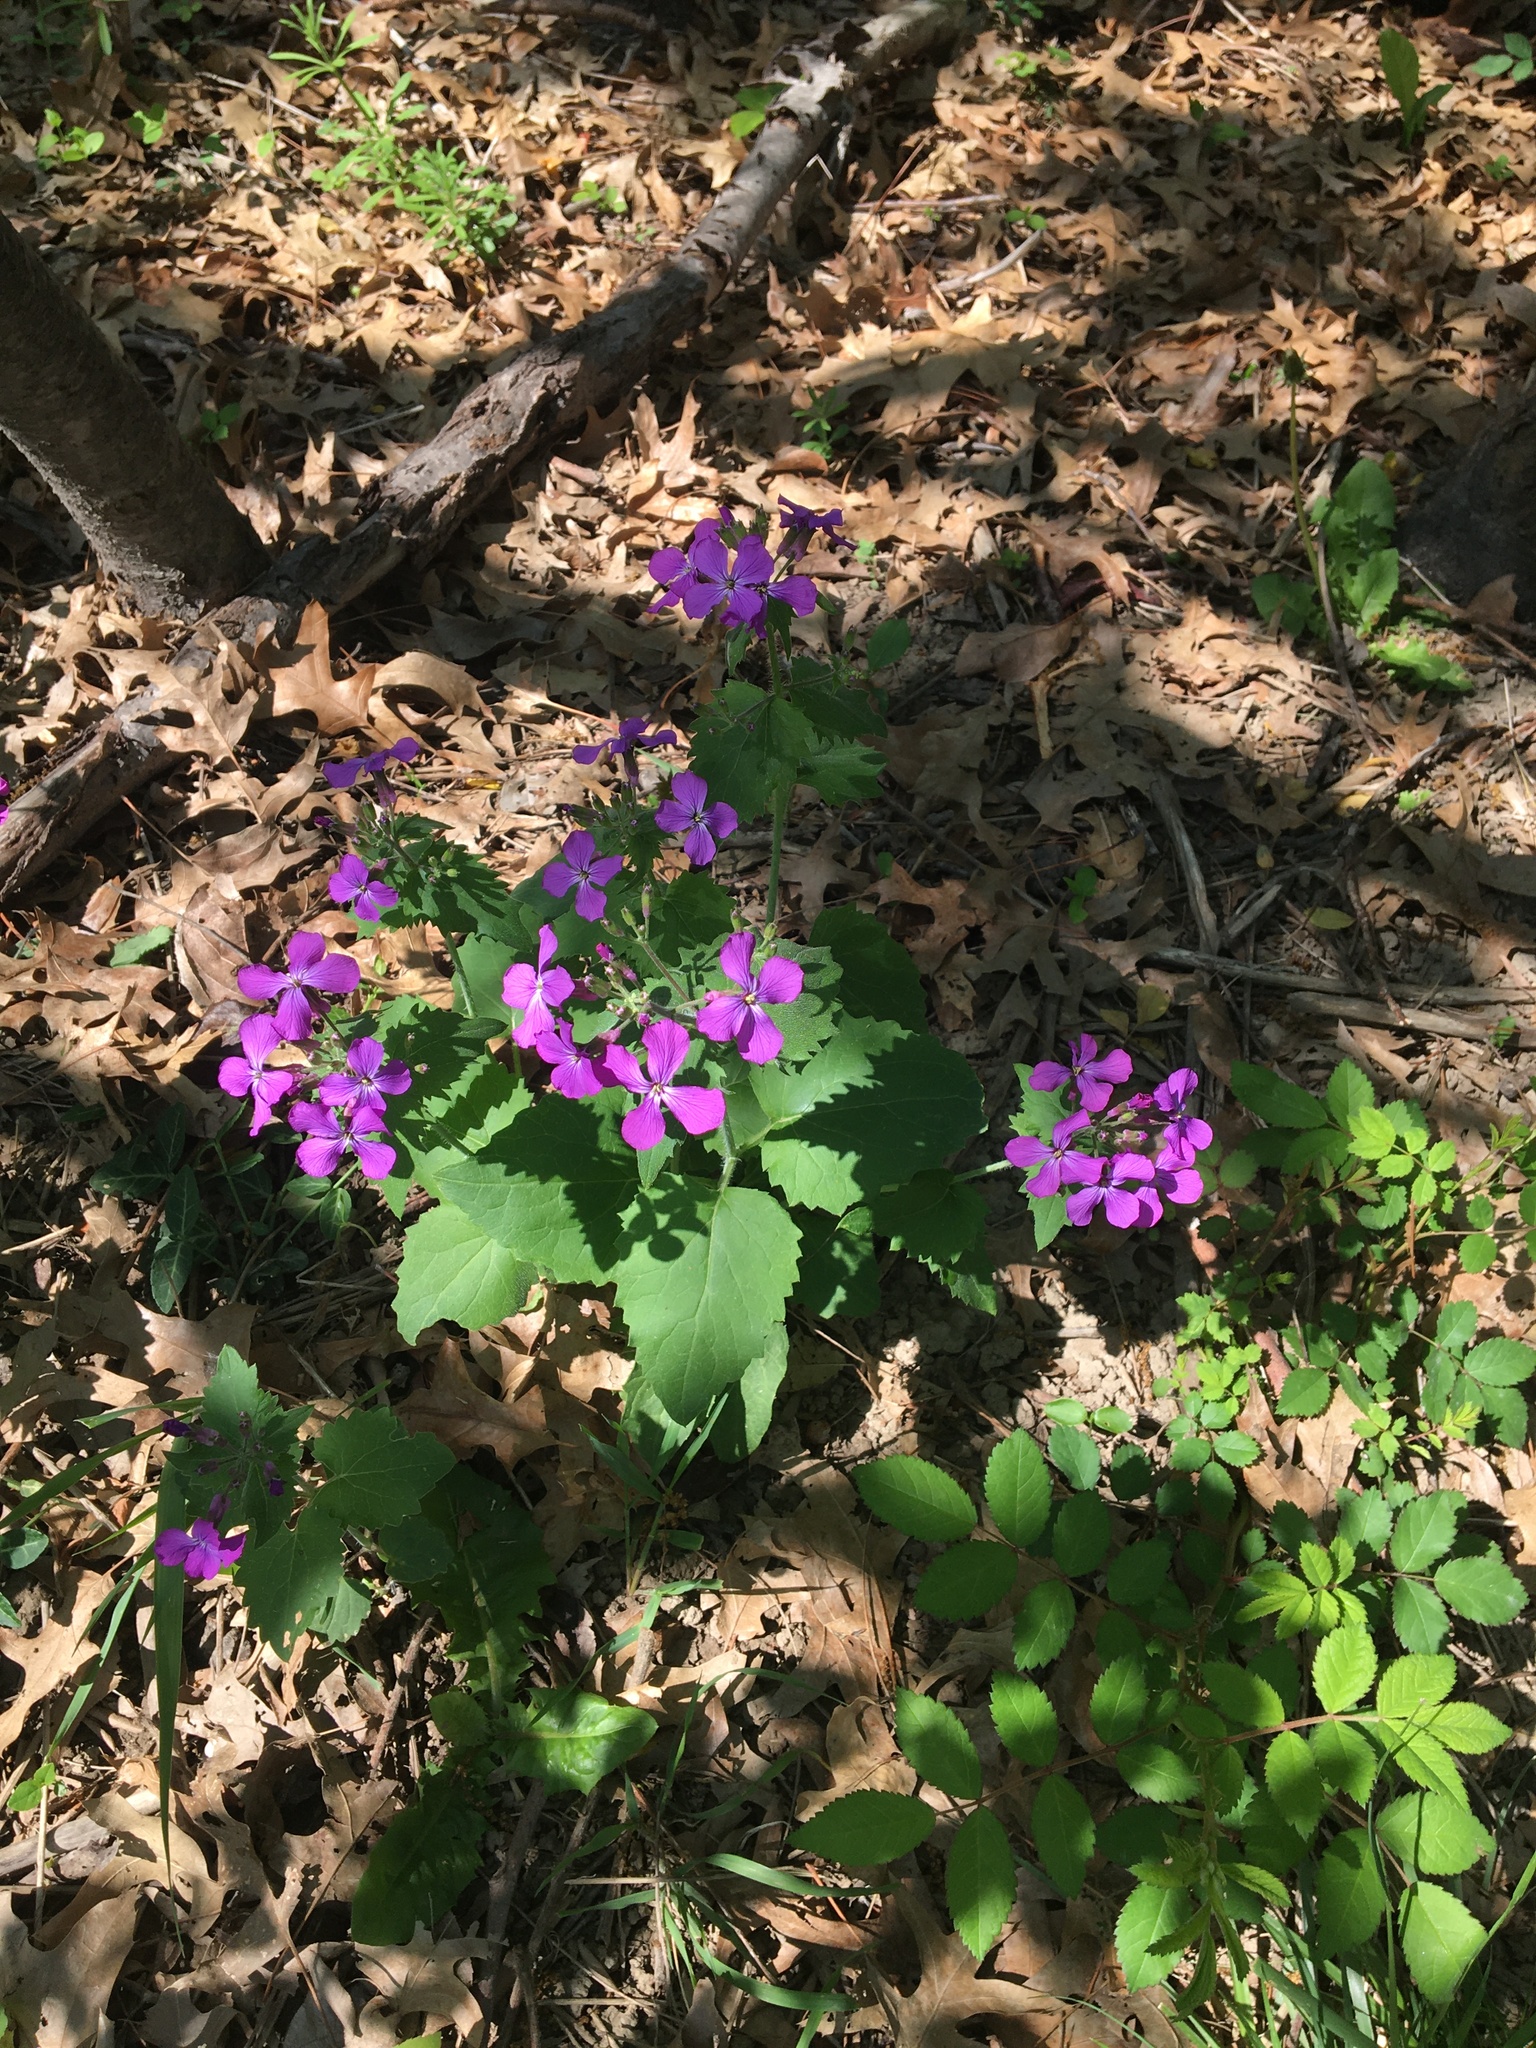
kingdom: Plantae
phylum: Tracheophyta
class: Magnoliopsida
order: Brassicales
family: Brassicaceae
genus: Lunaria
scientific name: Lunaria annua
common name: Honesty
